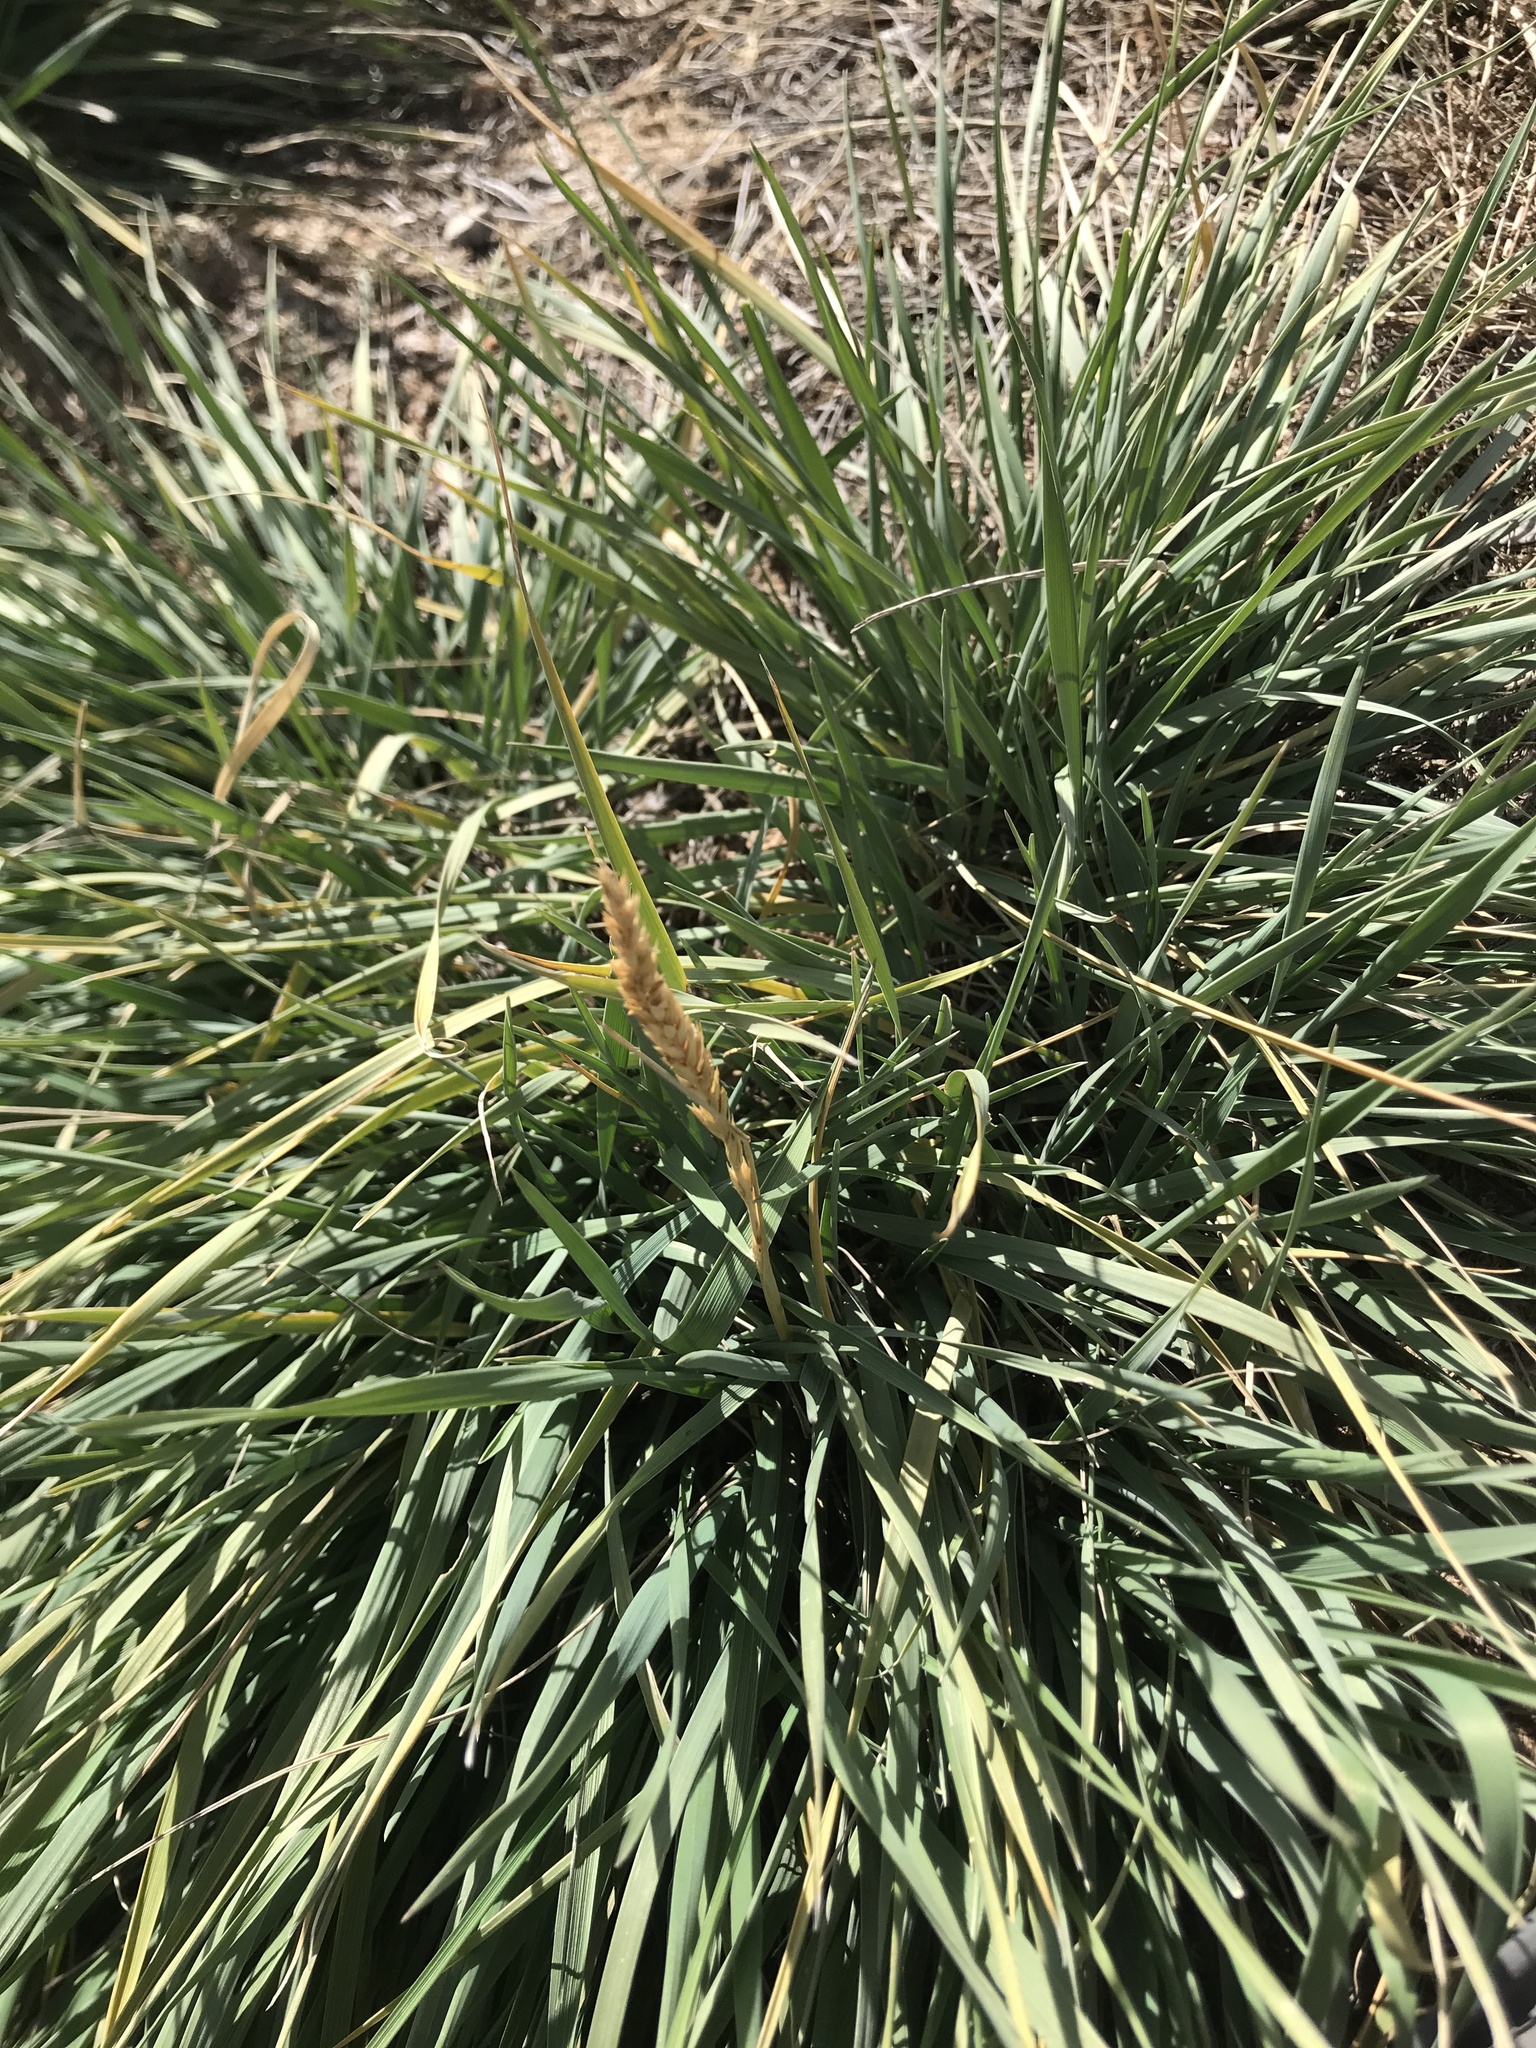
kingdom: Plantae
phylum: Tracheophyta
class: Liliopsida
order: Poales
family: Poaceae
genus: Psathyrostachys
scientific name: Psathyrostachys juncea
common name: Russian wildrye
